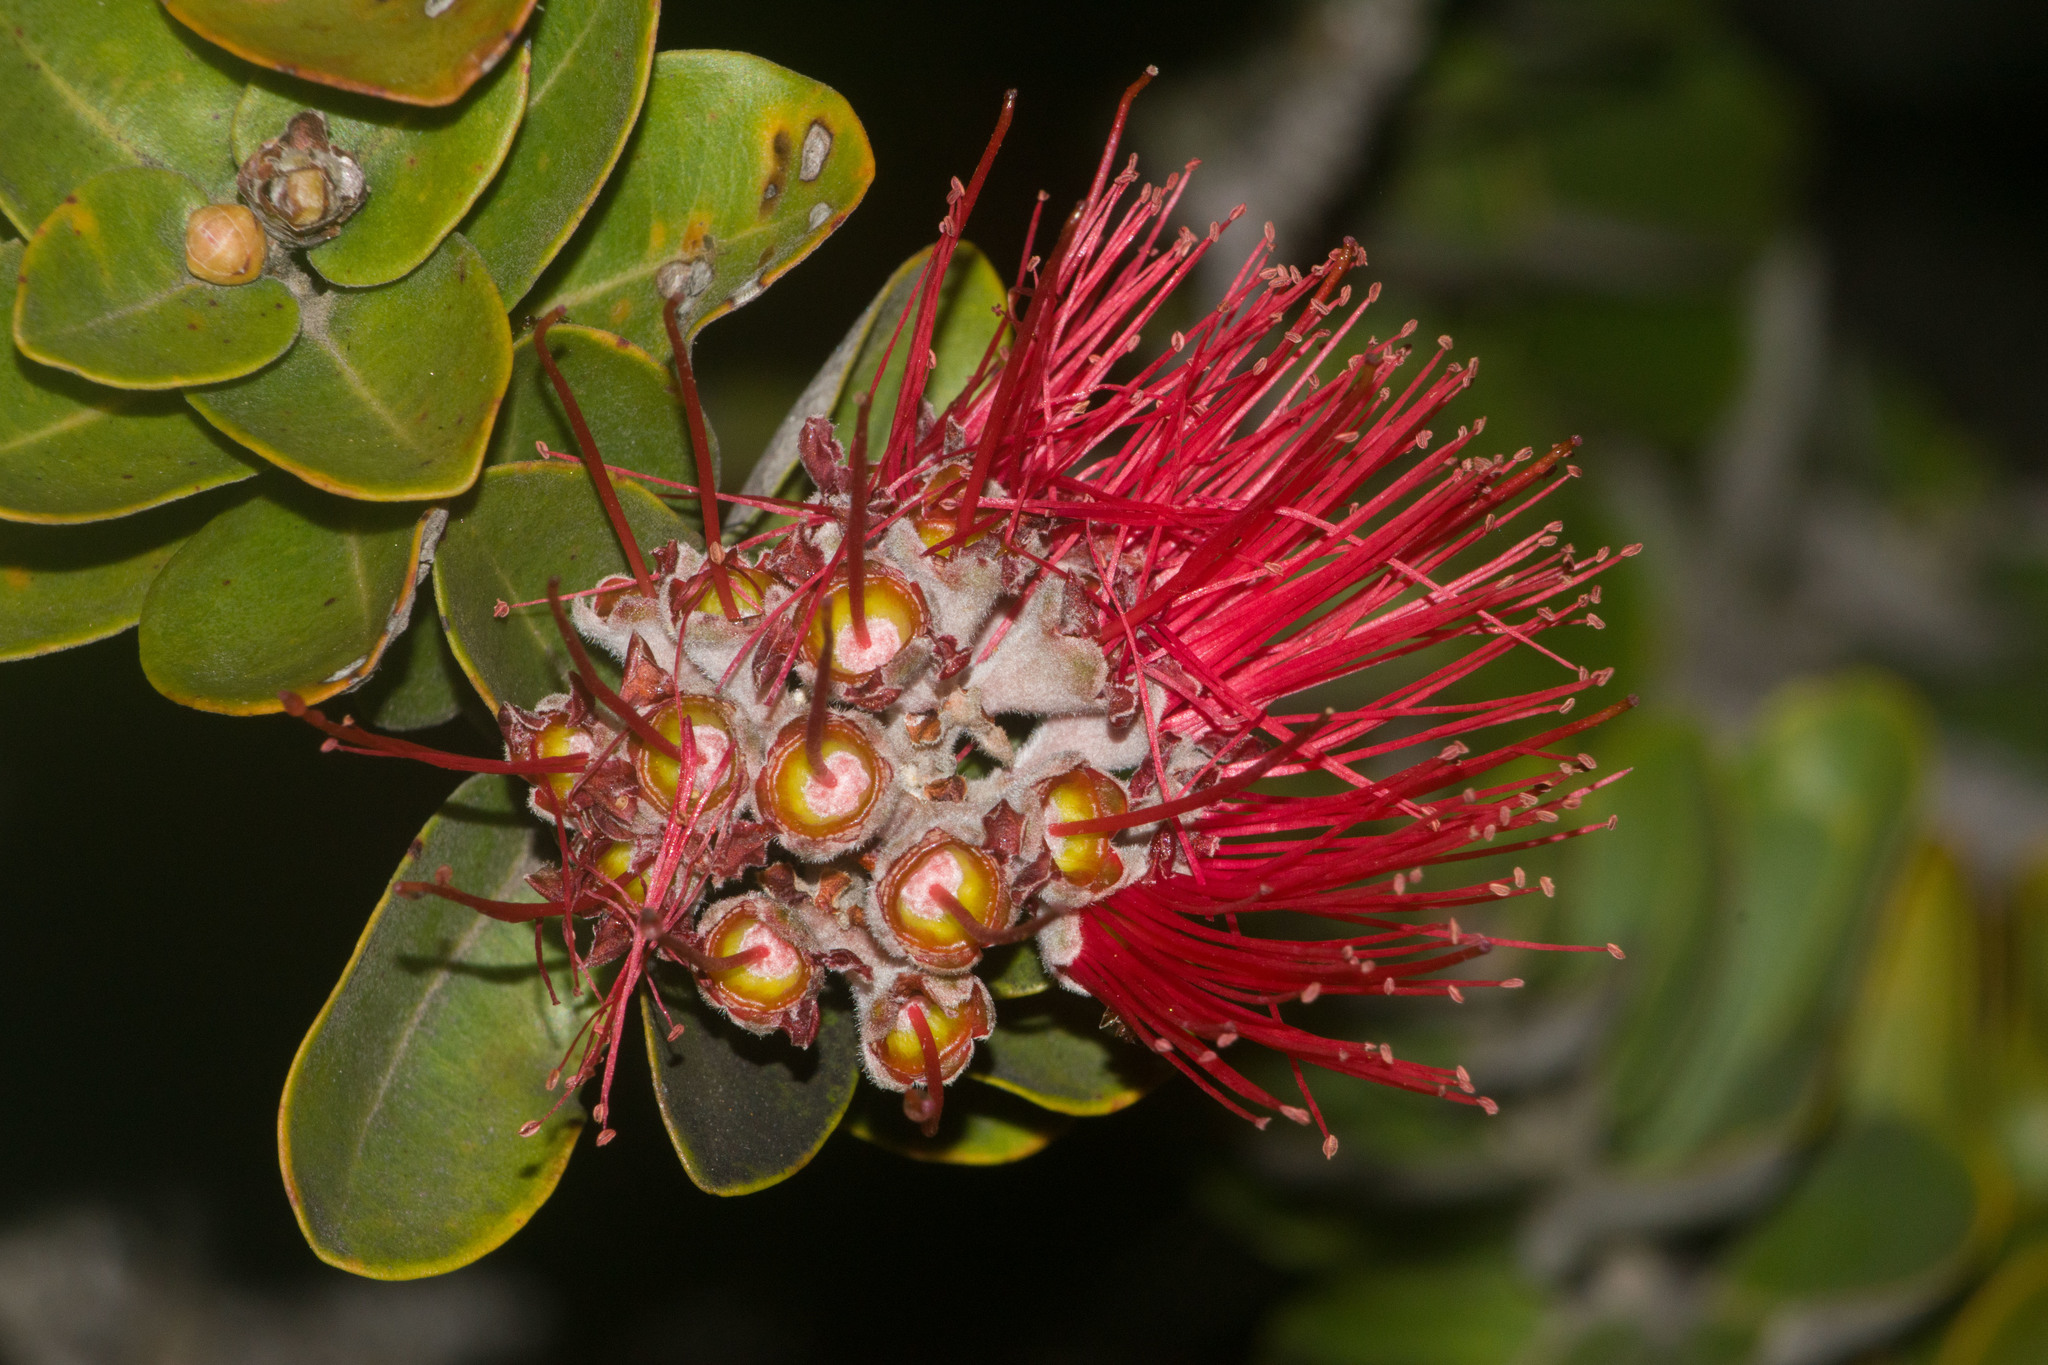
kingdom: Plantae
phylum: Tracheophyta
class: Magnoliopsida
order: Myrtales
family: Myrtaceae
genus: Metrosideros
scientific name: Metrosideros polymorpha
